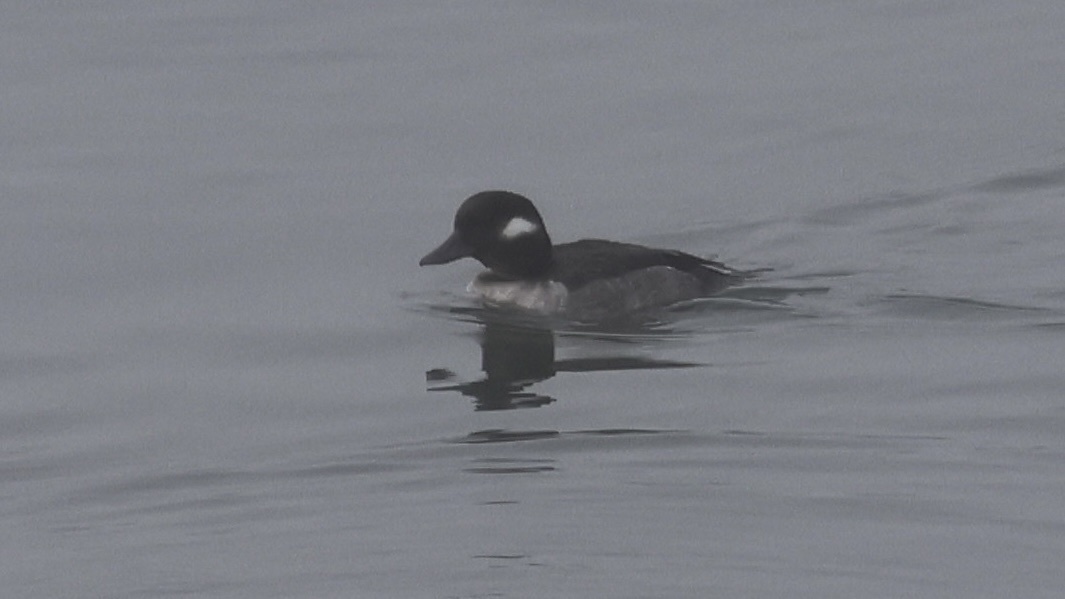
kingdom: Animalia
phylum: Chordata
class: Aves
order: Anseriformes
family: Anatidae
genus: Bucephala
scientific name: Bucephala albeola
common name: Bufflehead
